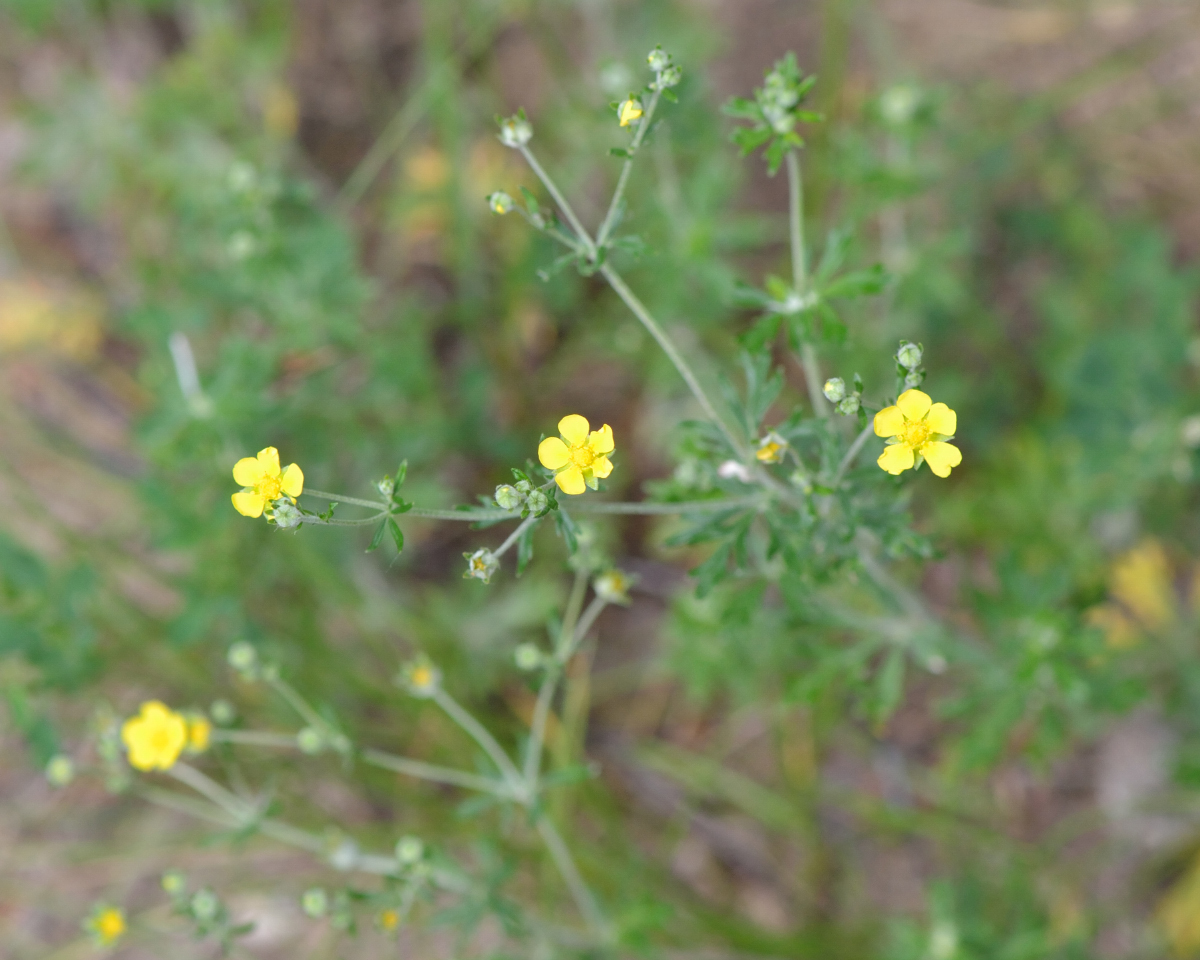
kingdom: Plantae
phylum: Tracheophyta
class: Magnoliopsida
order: Rosales
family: Rosaceae
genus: Potentilla
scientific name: Potentilla argentea
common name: Hoary cinquefoil
